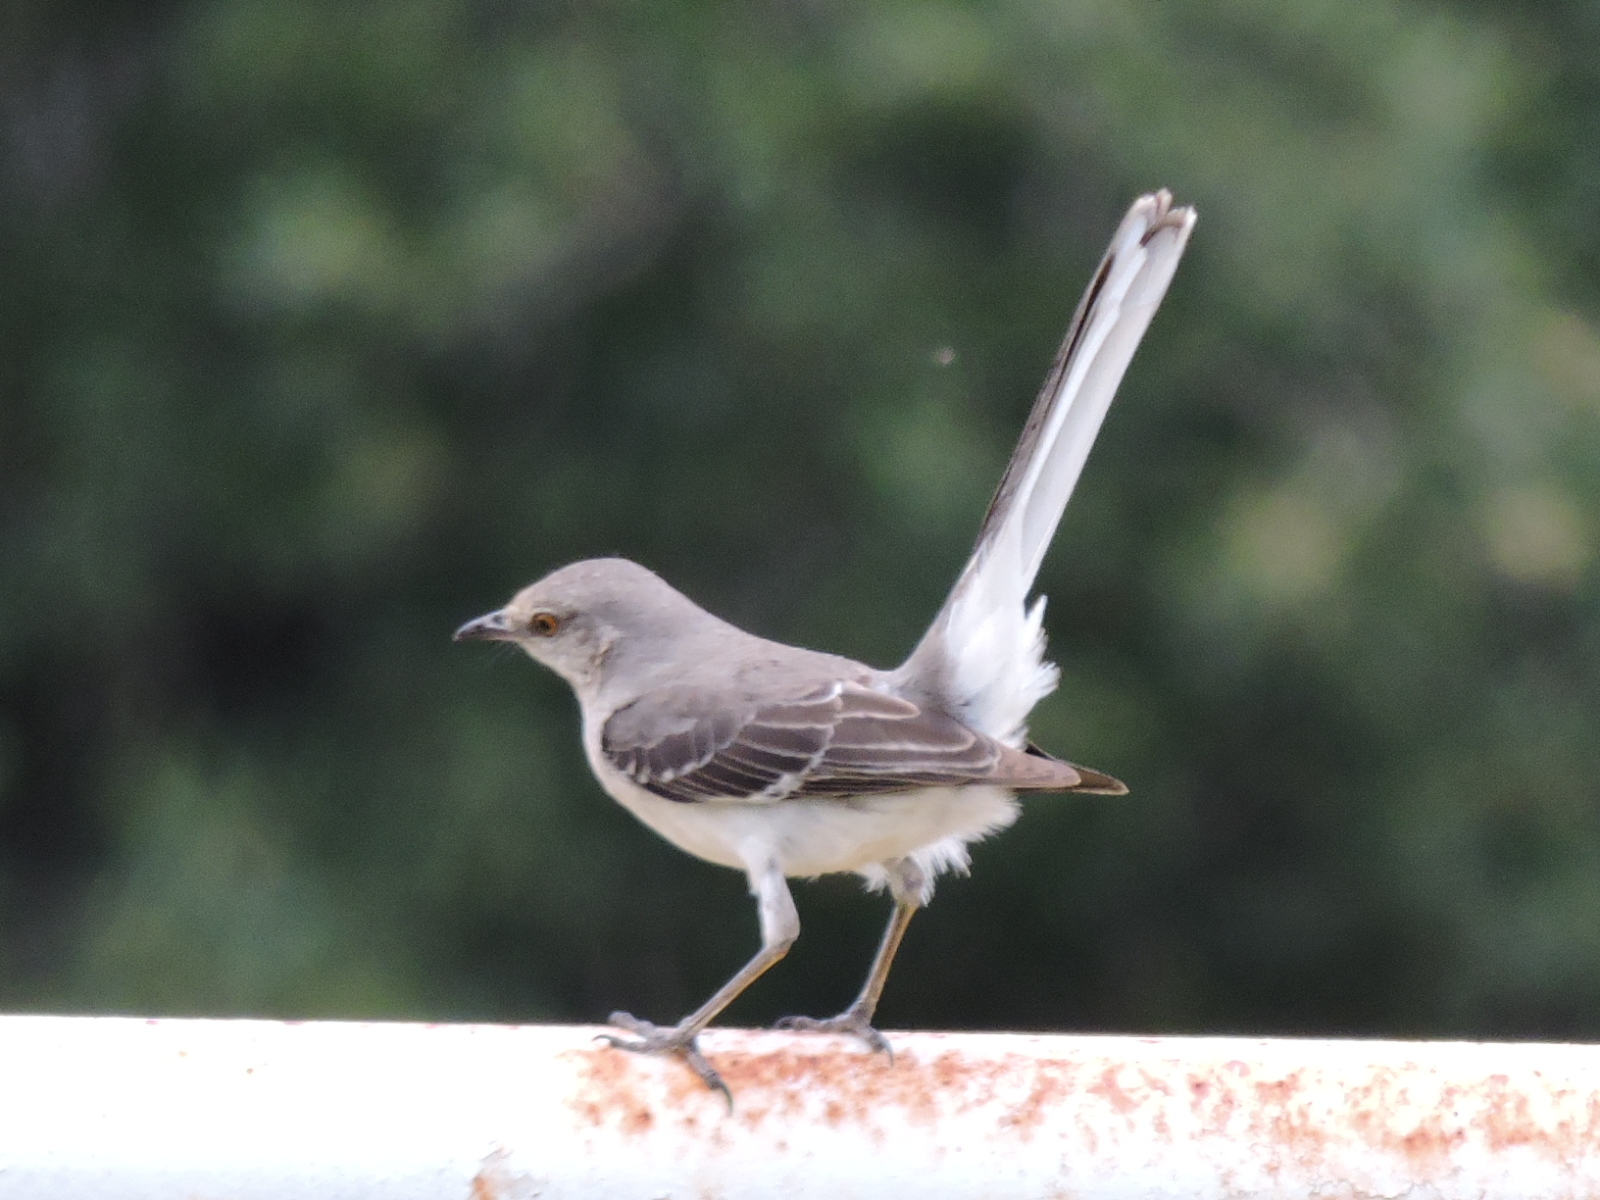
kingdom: Animalia
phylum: Chordata
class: Aves
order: Passeriformes
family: Mimidae
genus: Mimus
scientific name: Mimus polyglottos
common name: Northern mockingbird
